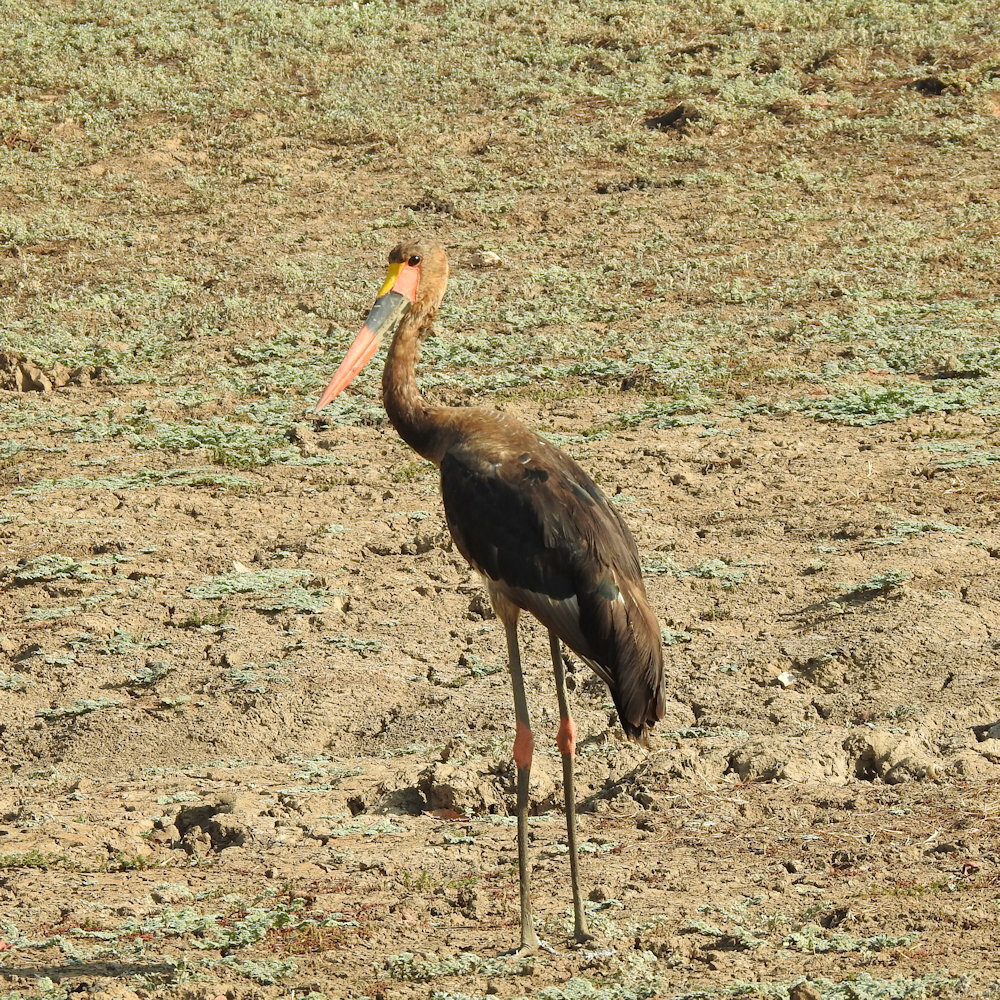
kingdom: Animalia
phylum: Chordata
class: Aves
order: Ciconiiformes
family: Ciconiidae
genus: Ephippiorhynchus
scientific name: Ephippiorhynchus senegalensis
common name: Saddle-billed stork
